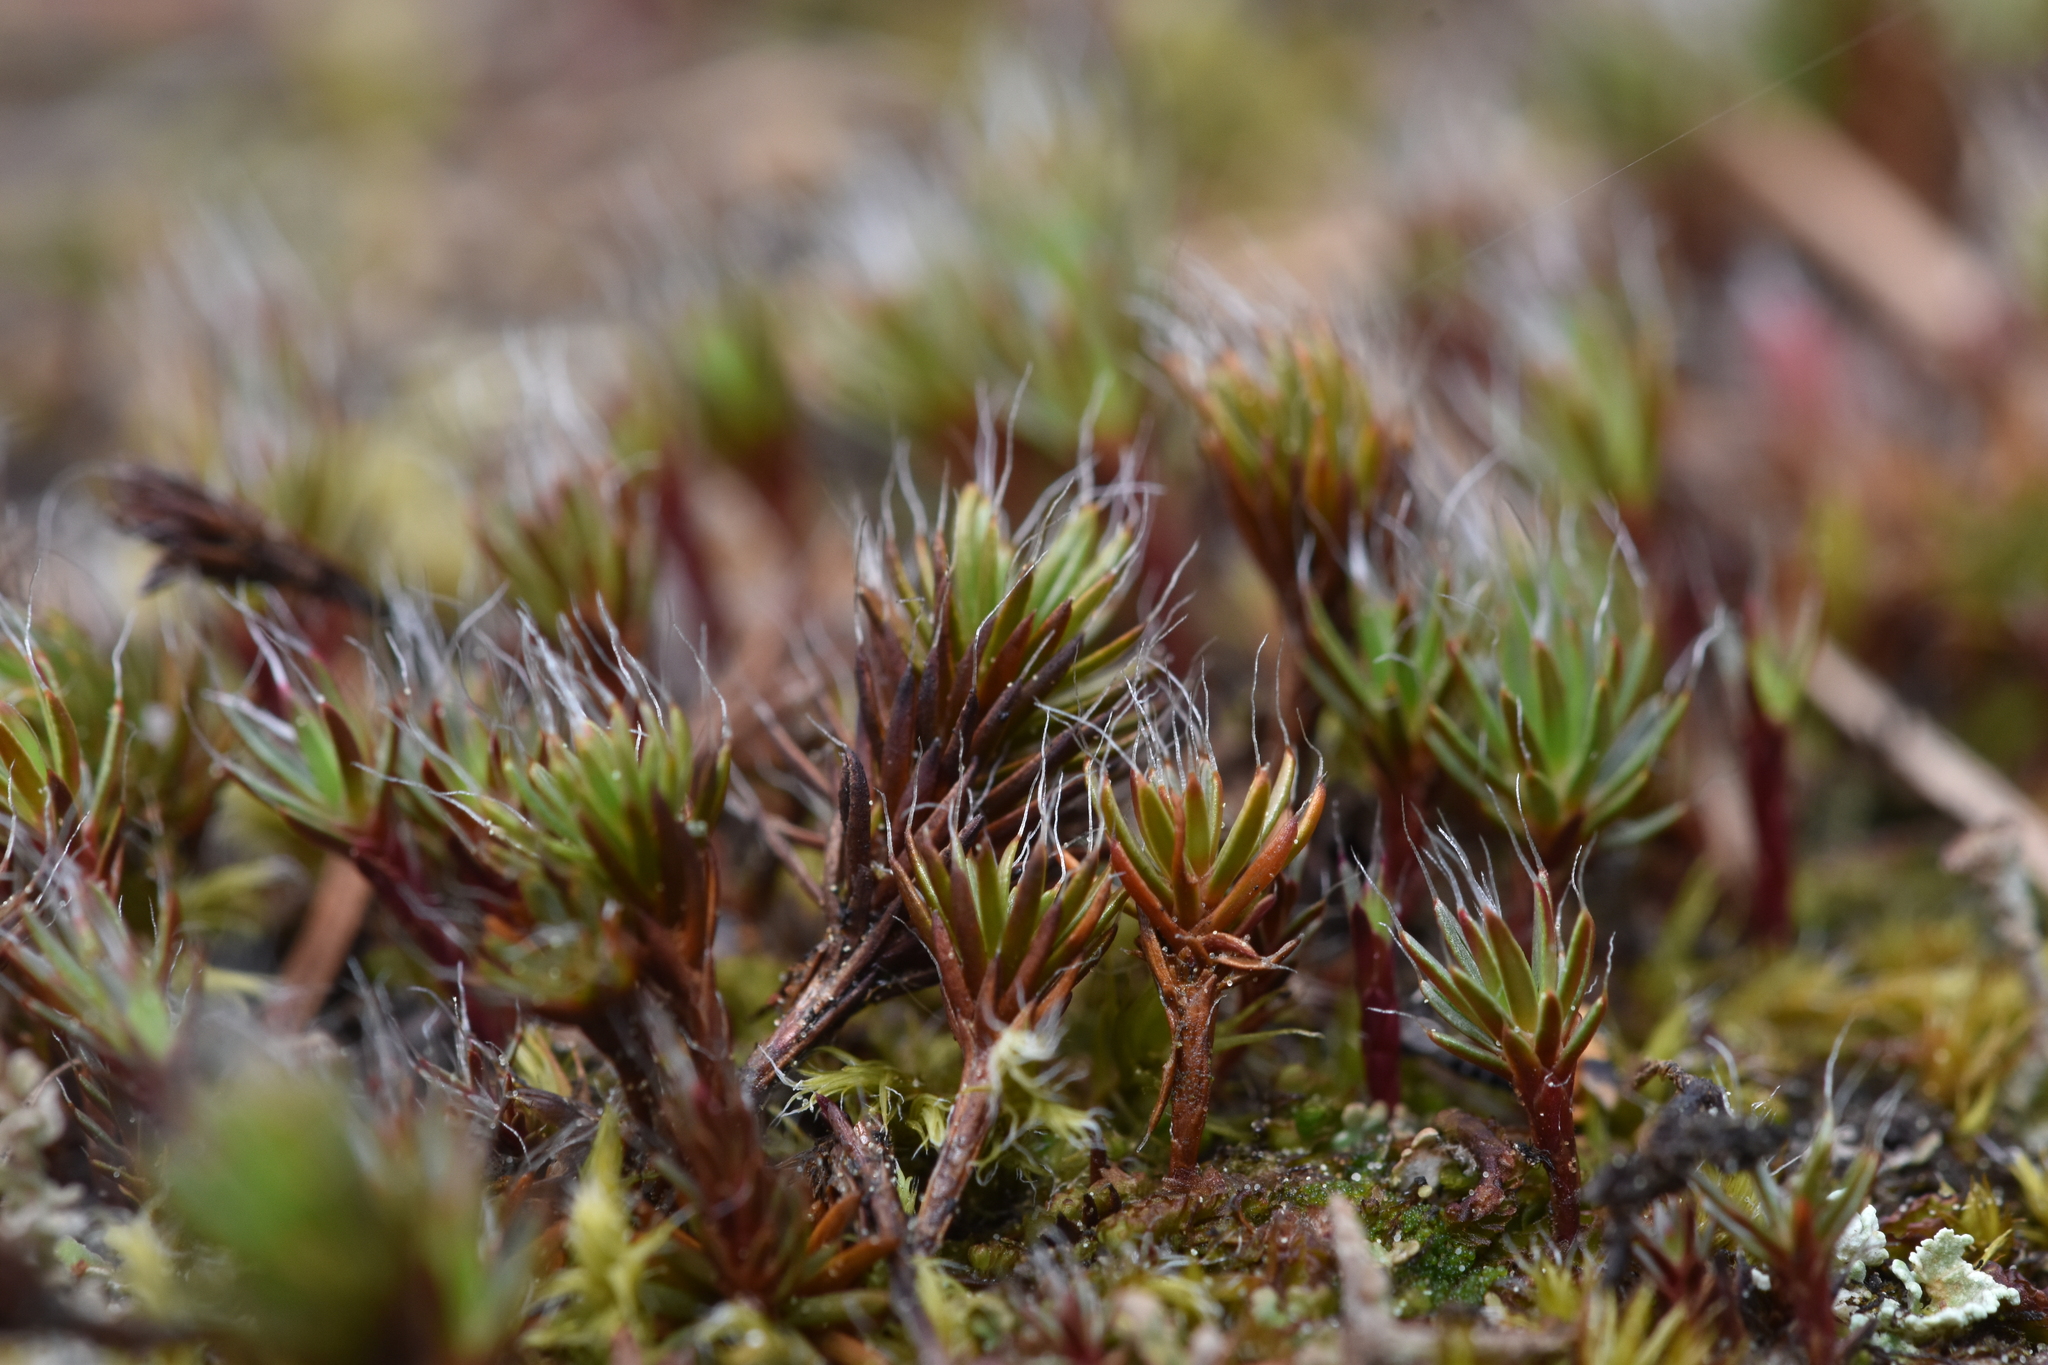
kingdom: Plantae
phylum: Bryophyta
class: Polytrichopsida
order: Polytrichales
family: Polytrichaceae
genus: Polytrichum
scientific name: Polytrichum piliferum
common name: Bristly haircap
